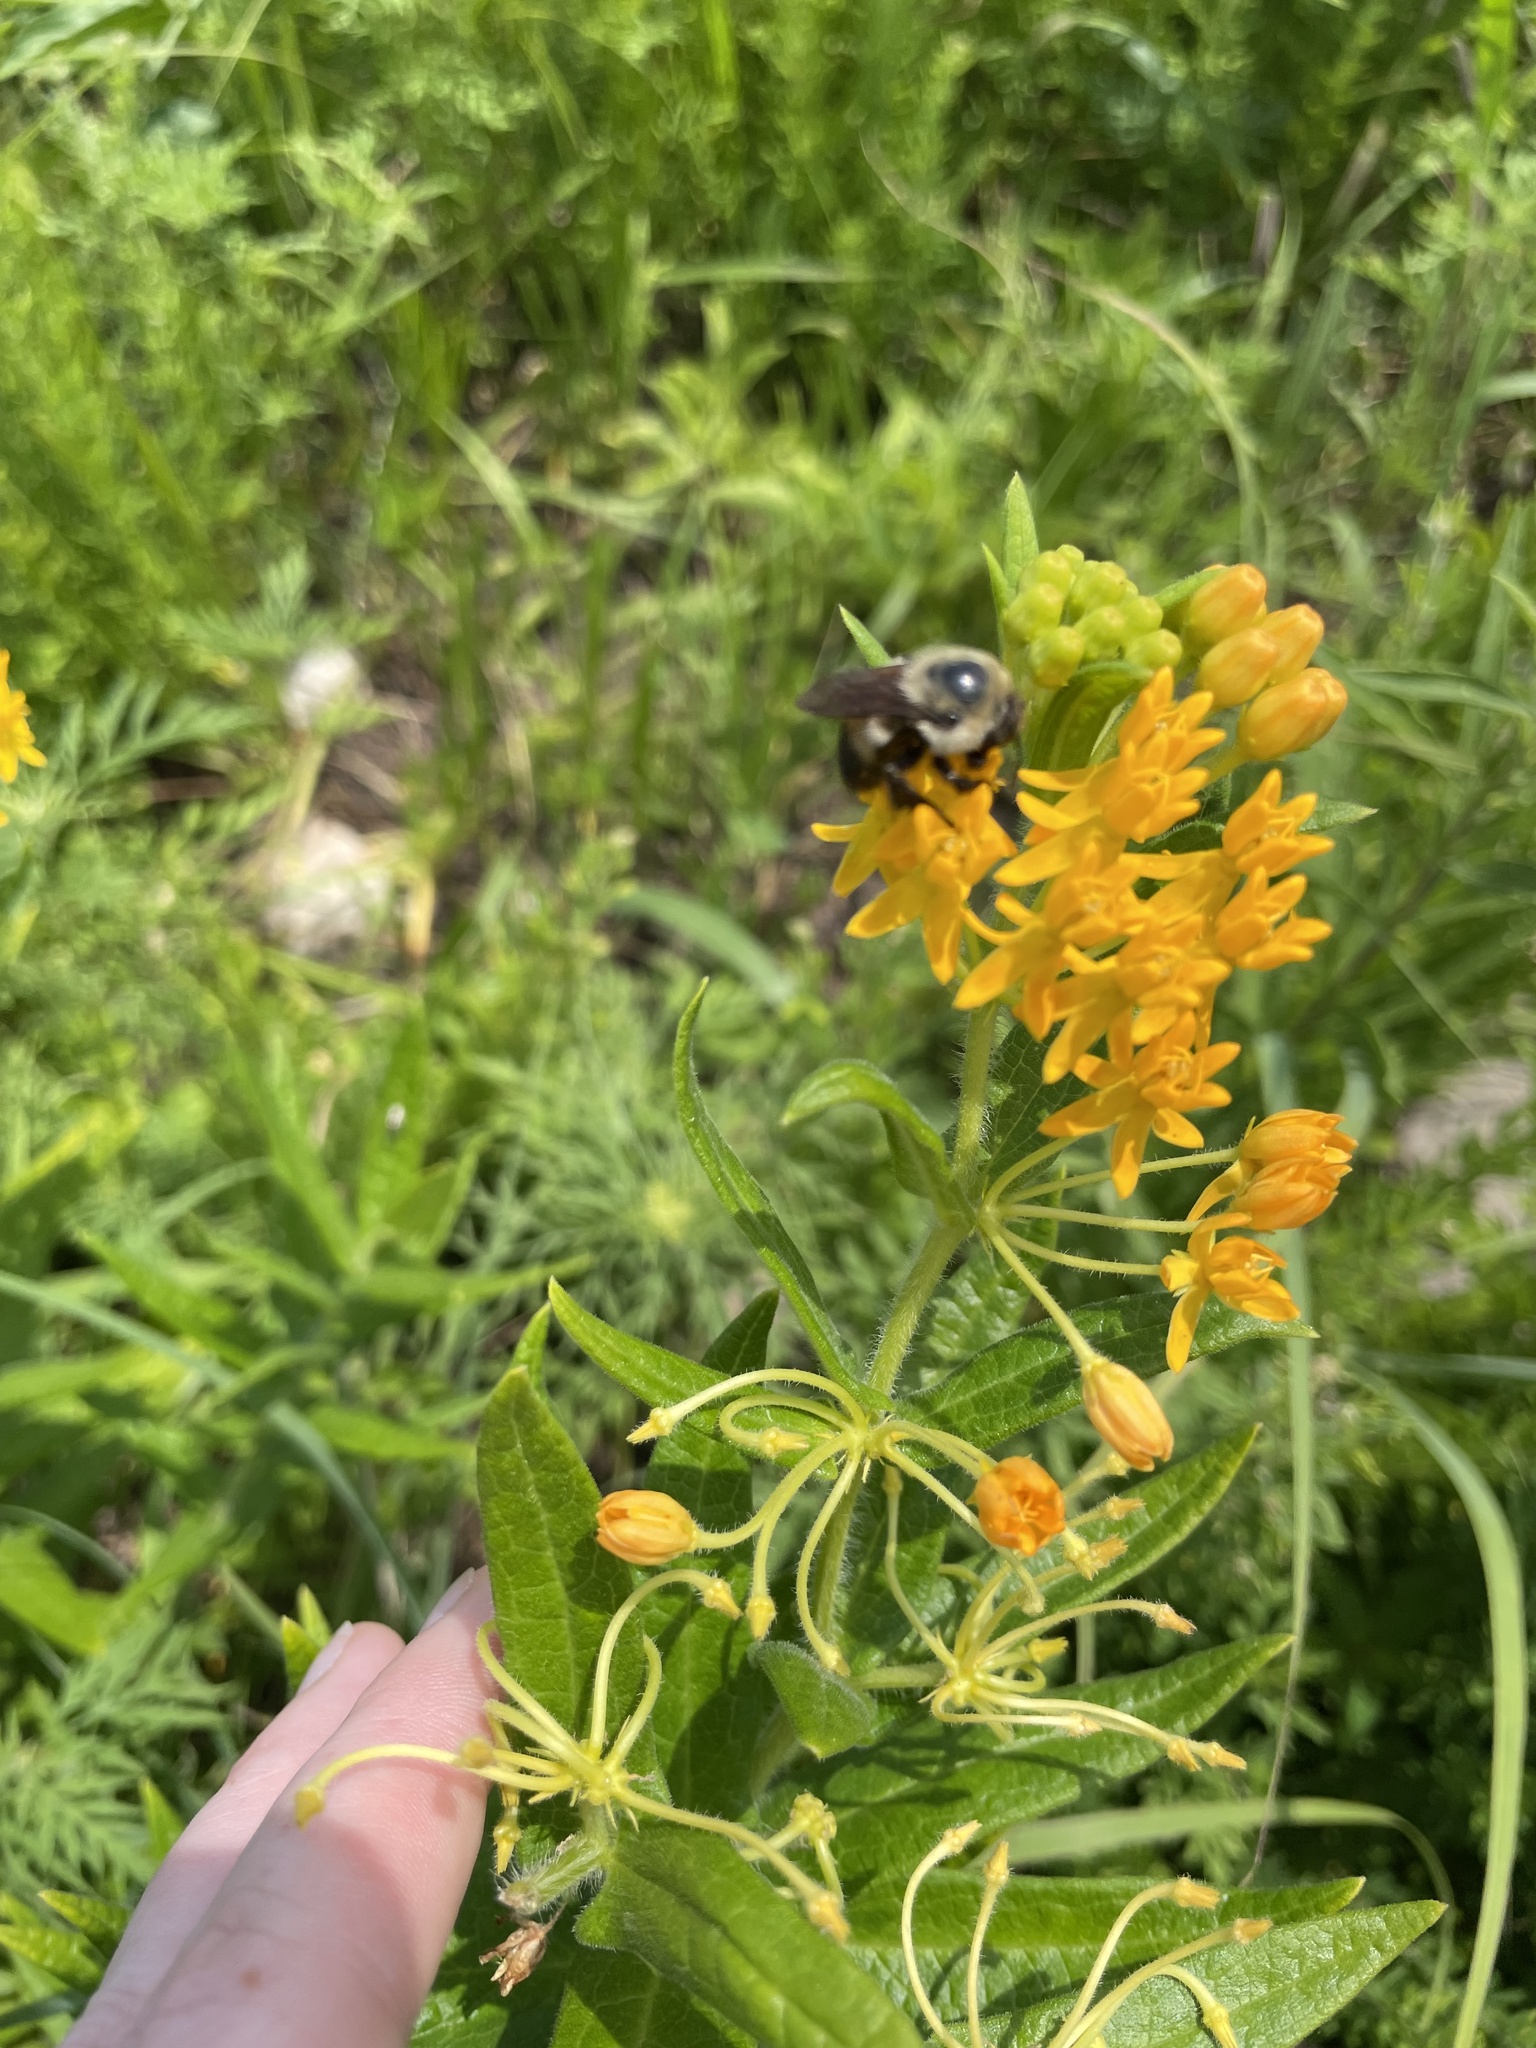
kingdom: Animalia
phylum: Arthropoda
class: Insecta
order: Hymenoptera
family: Apidae
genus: Bombus
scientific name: Bombus griseocollis
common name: Brown-belted bumble bee
